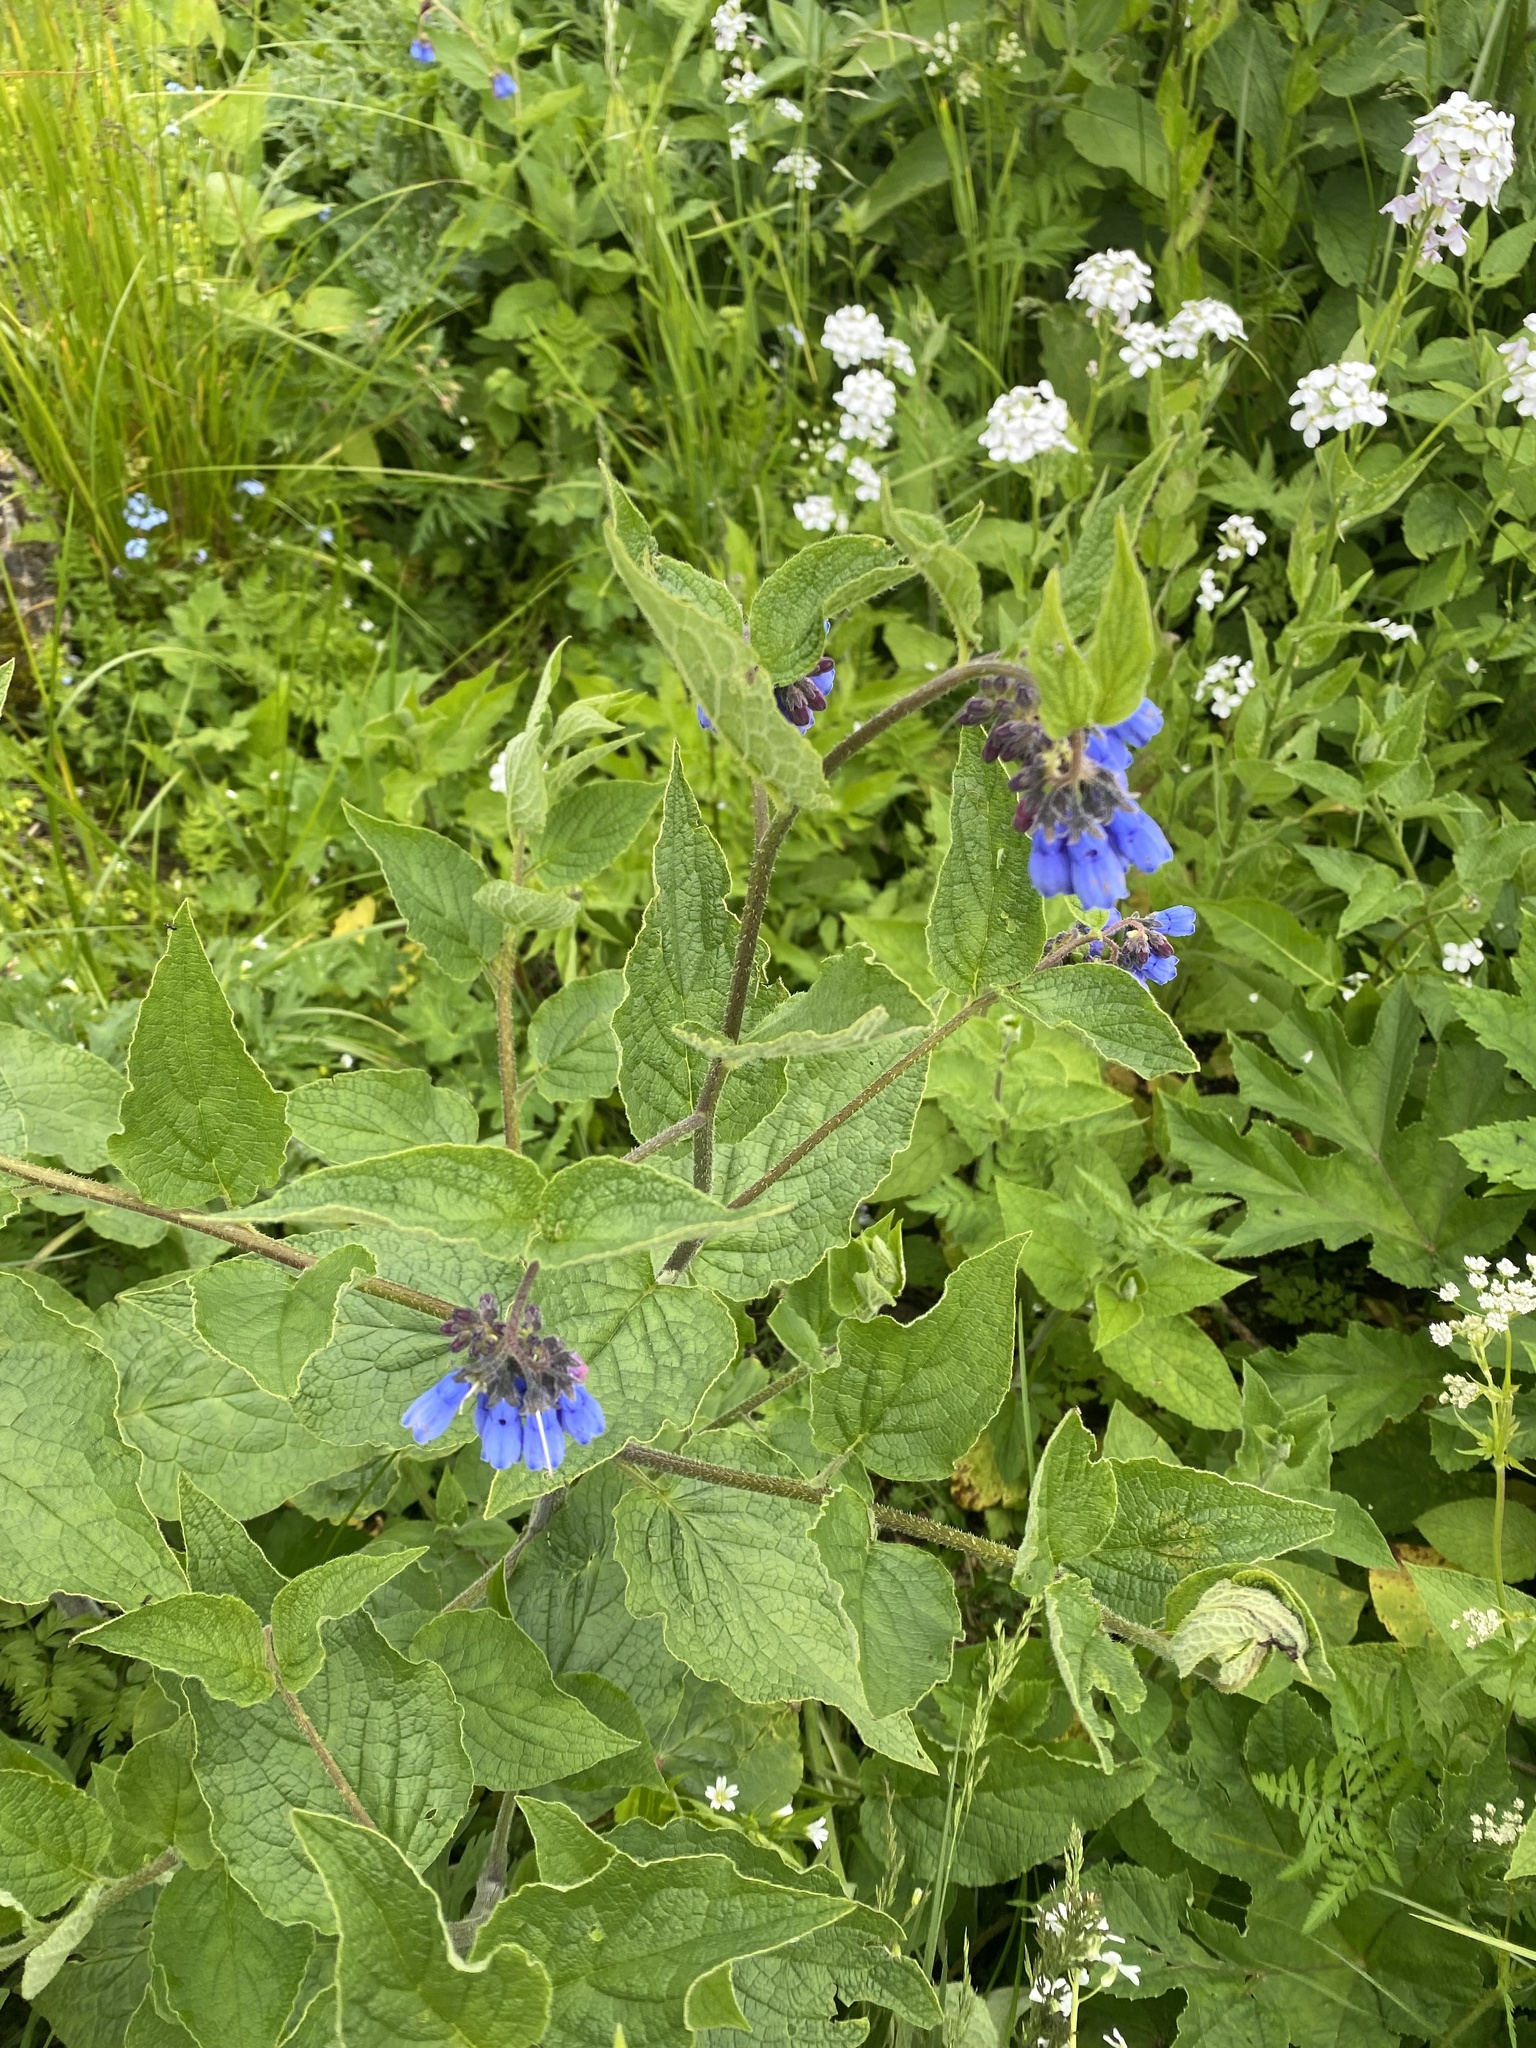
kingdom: Plantae
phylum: Tracheophyta
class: Magnoliopsida
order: Boraginales
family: Boraginaceae
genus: Symphytum
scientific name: Symphytum asperum
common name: Prickly comfrey
